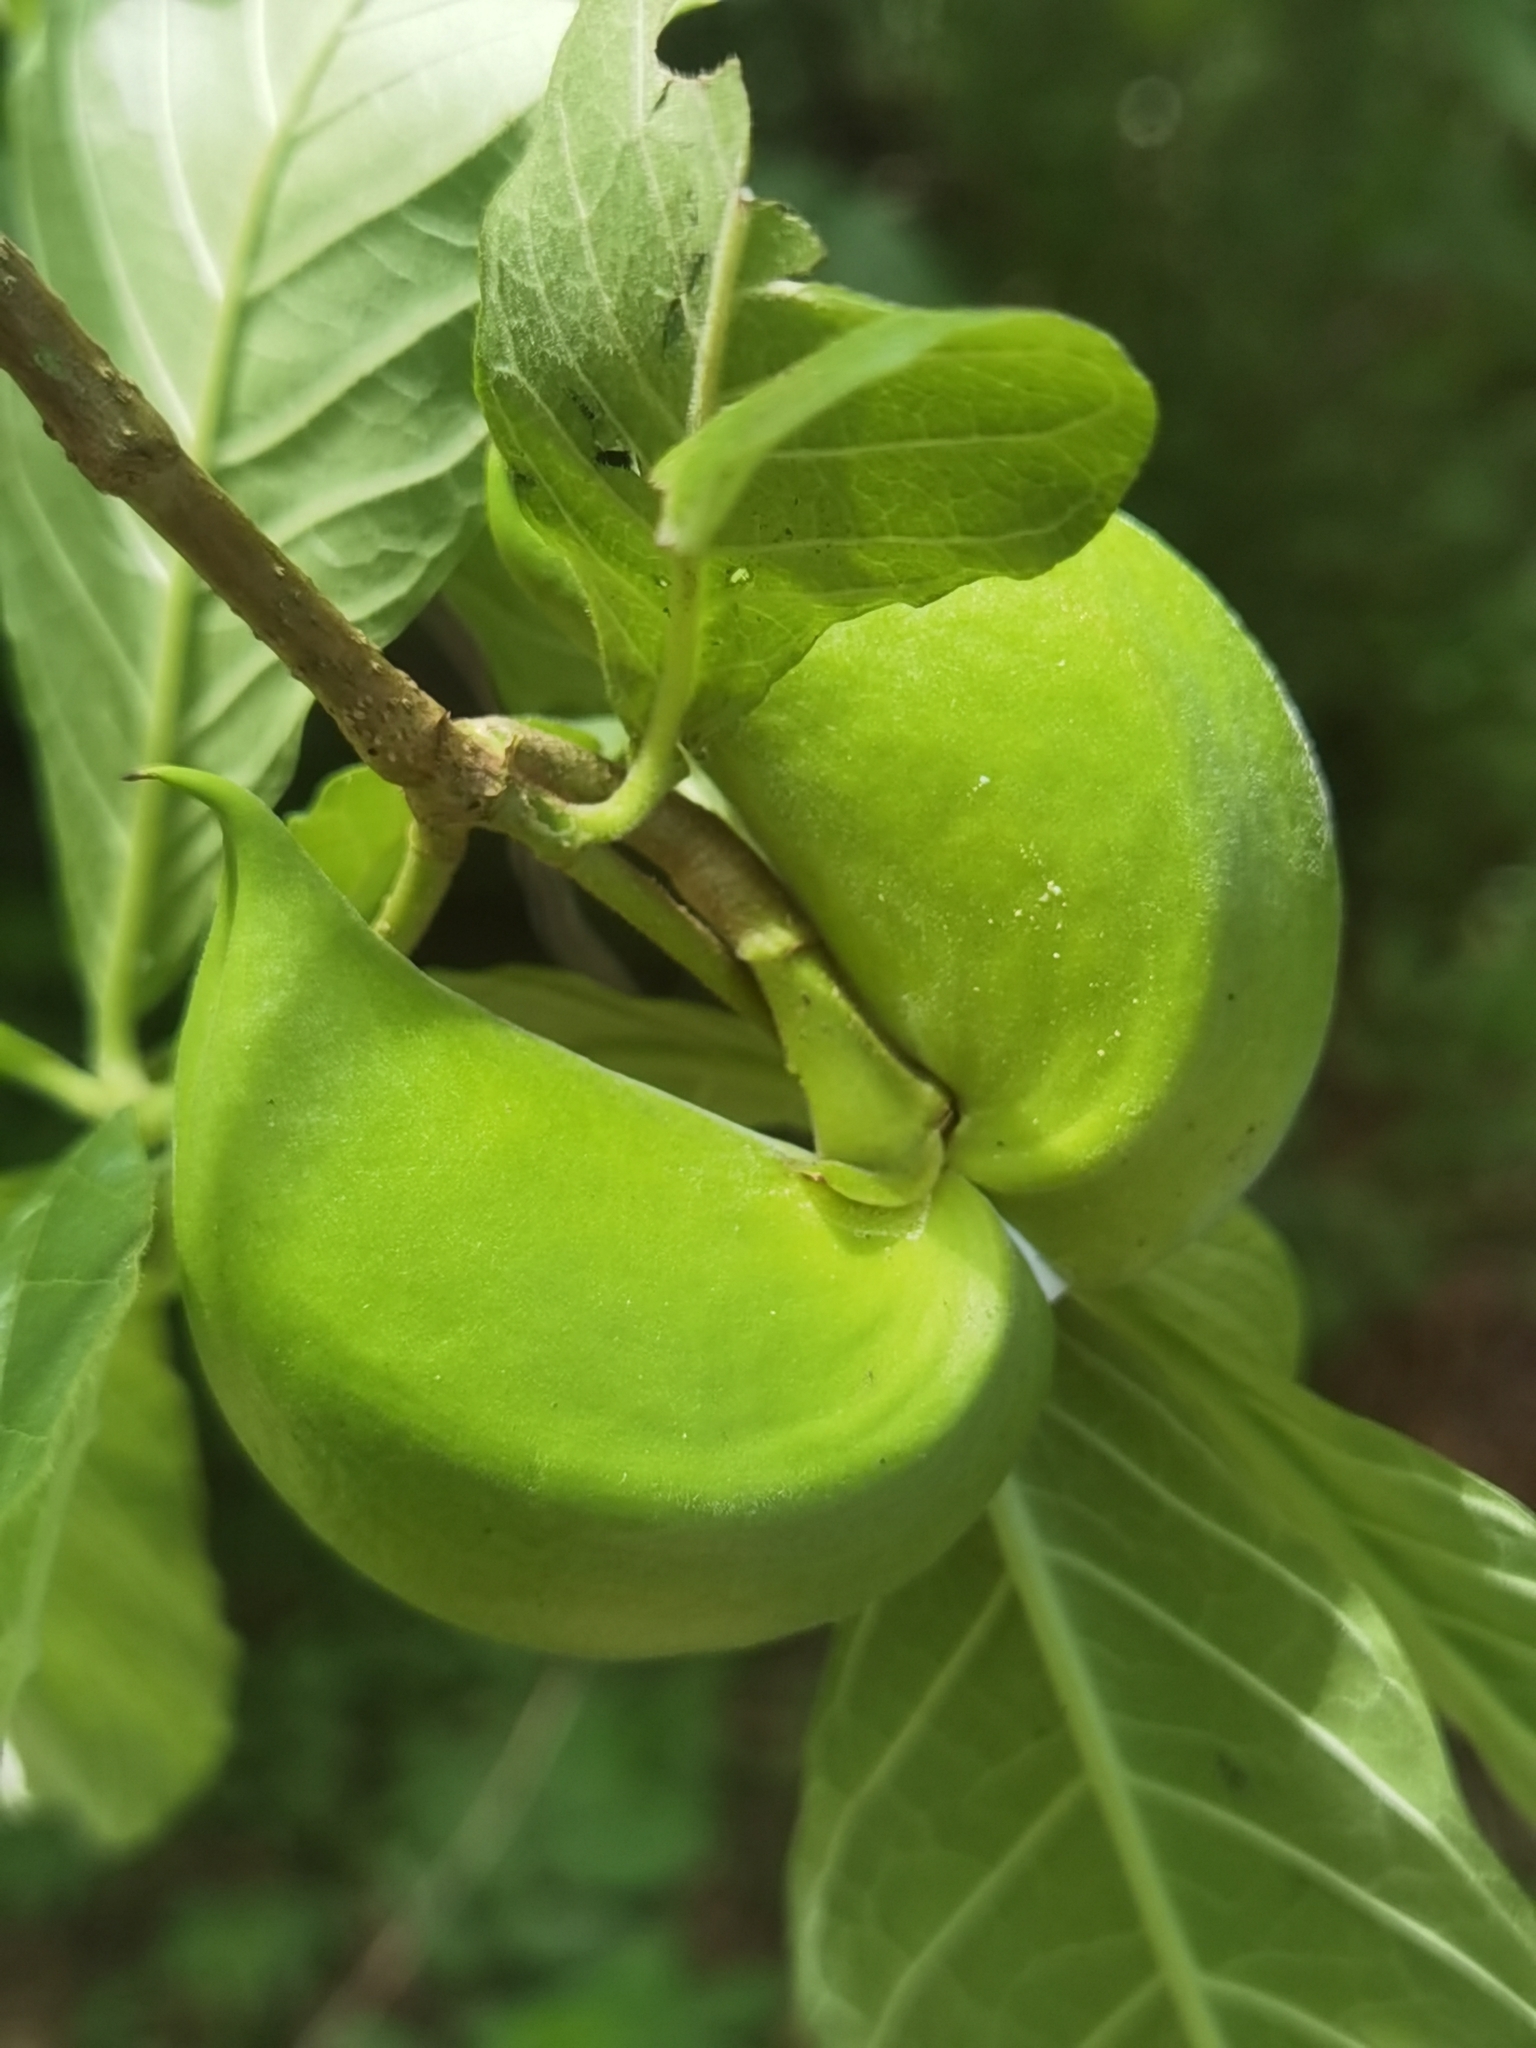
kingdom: Plantae
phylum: Tracheophyta
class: Magnoliopsida
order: Gentianales
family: Apocynaceae
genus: Tabernaemontana
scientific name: Tabernaemontana glabra
